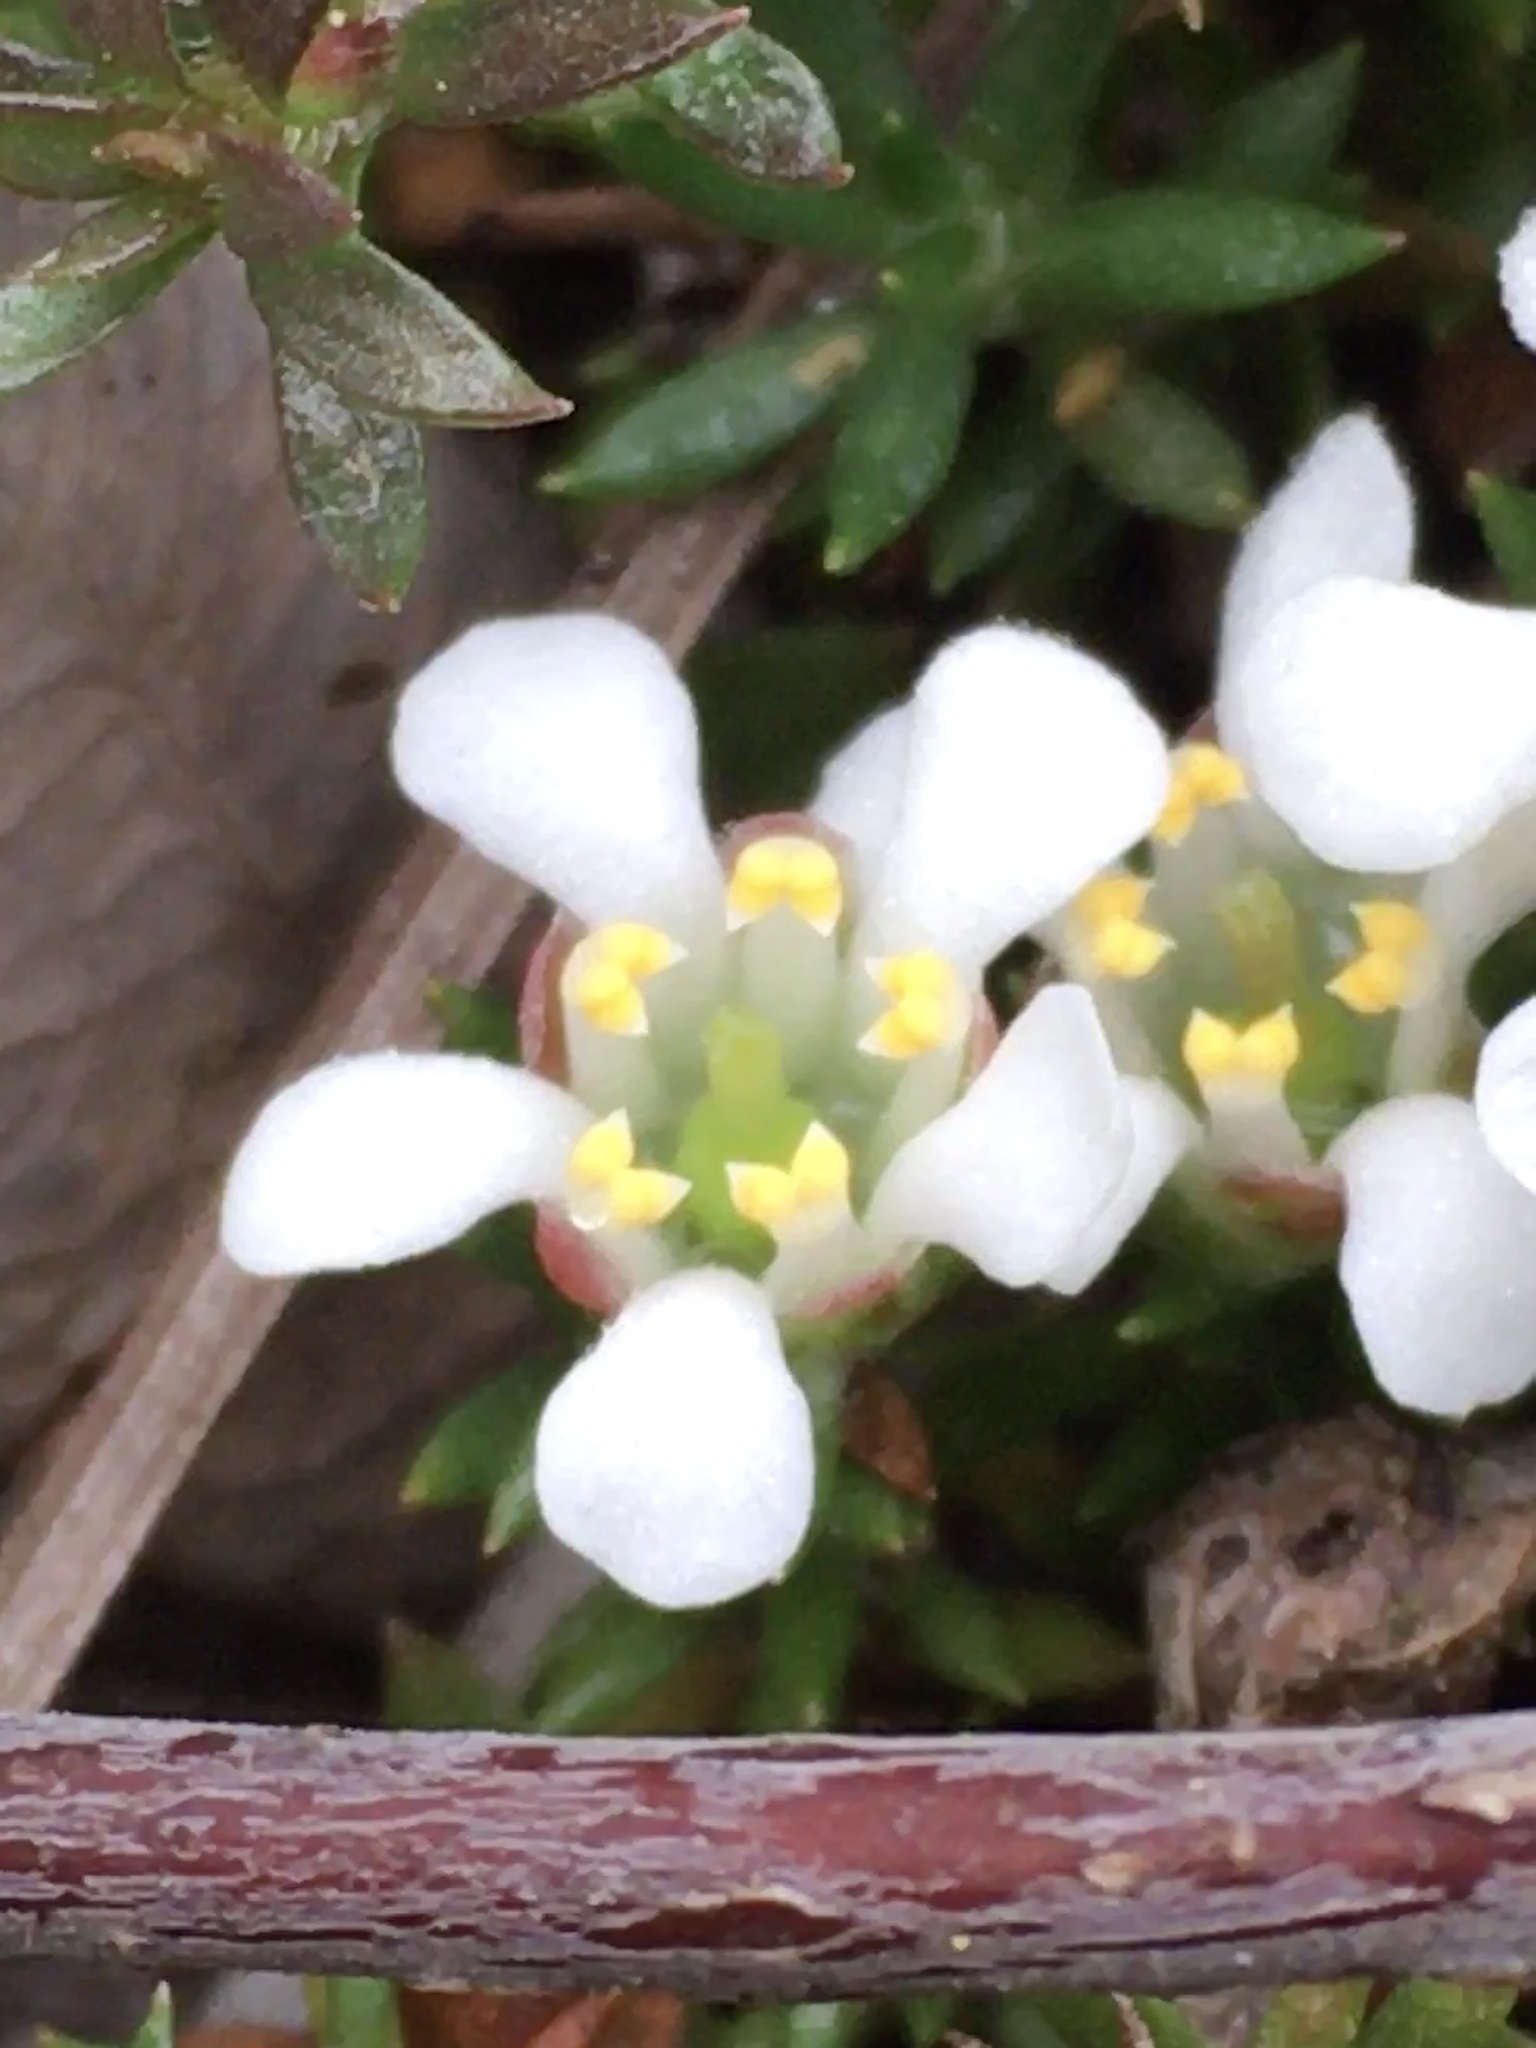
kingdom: Plantae
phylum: Tracheophyta
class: Magnoliopsida
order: Ericales
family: Diapensiaceae
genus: Pyxidanthera
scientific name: Pyxidanthera brevifolia
